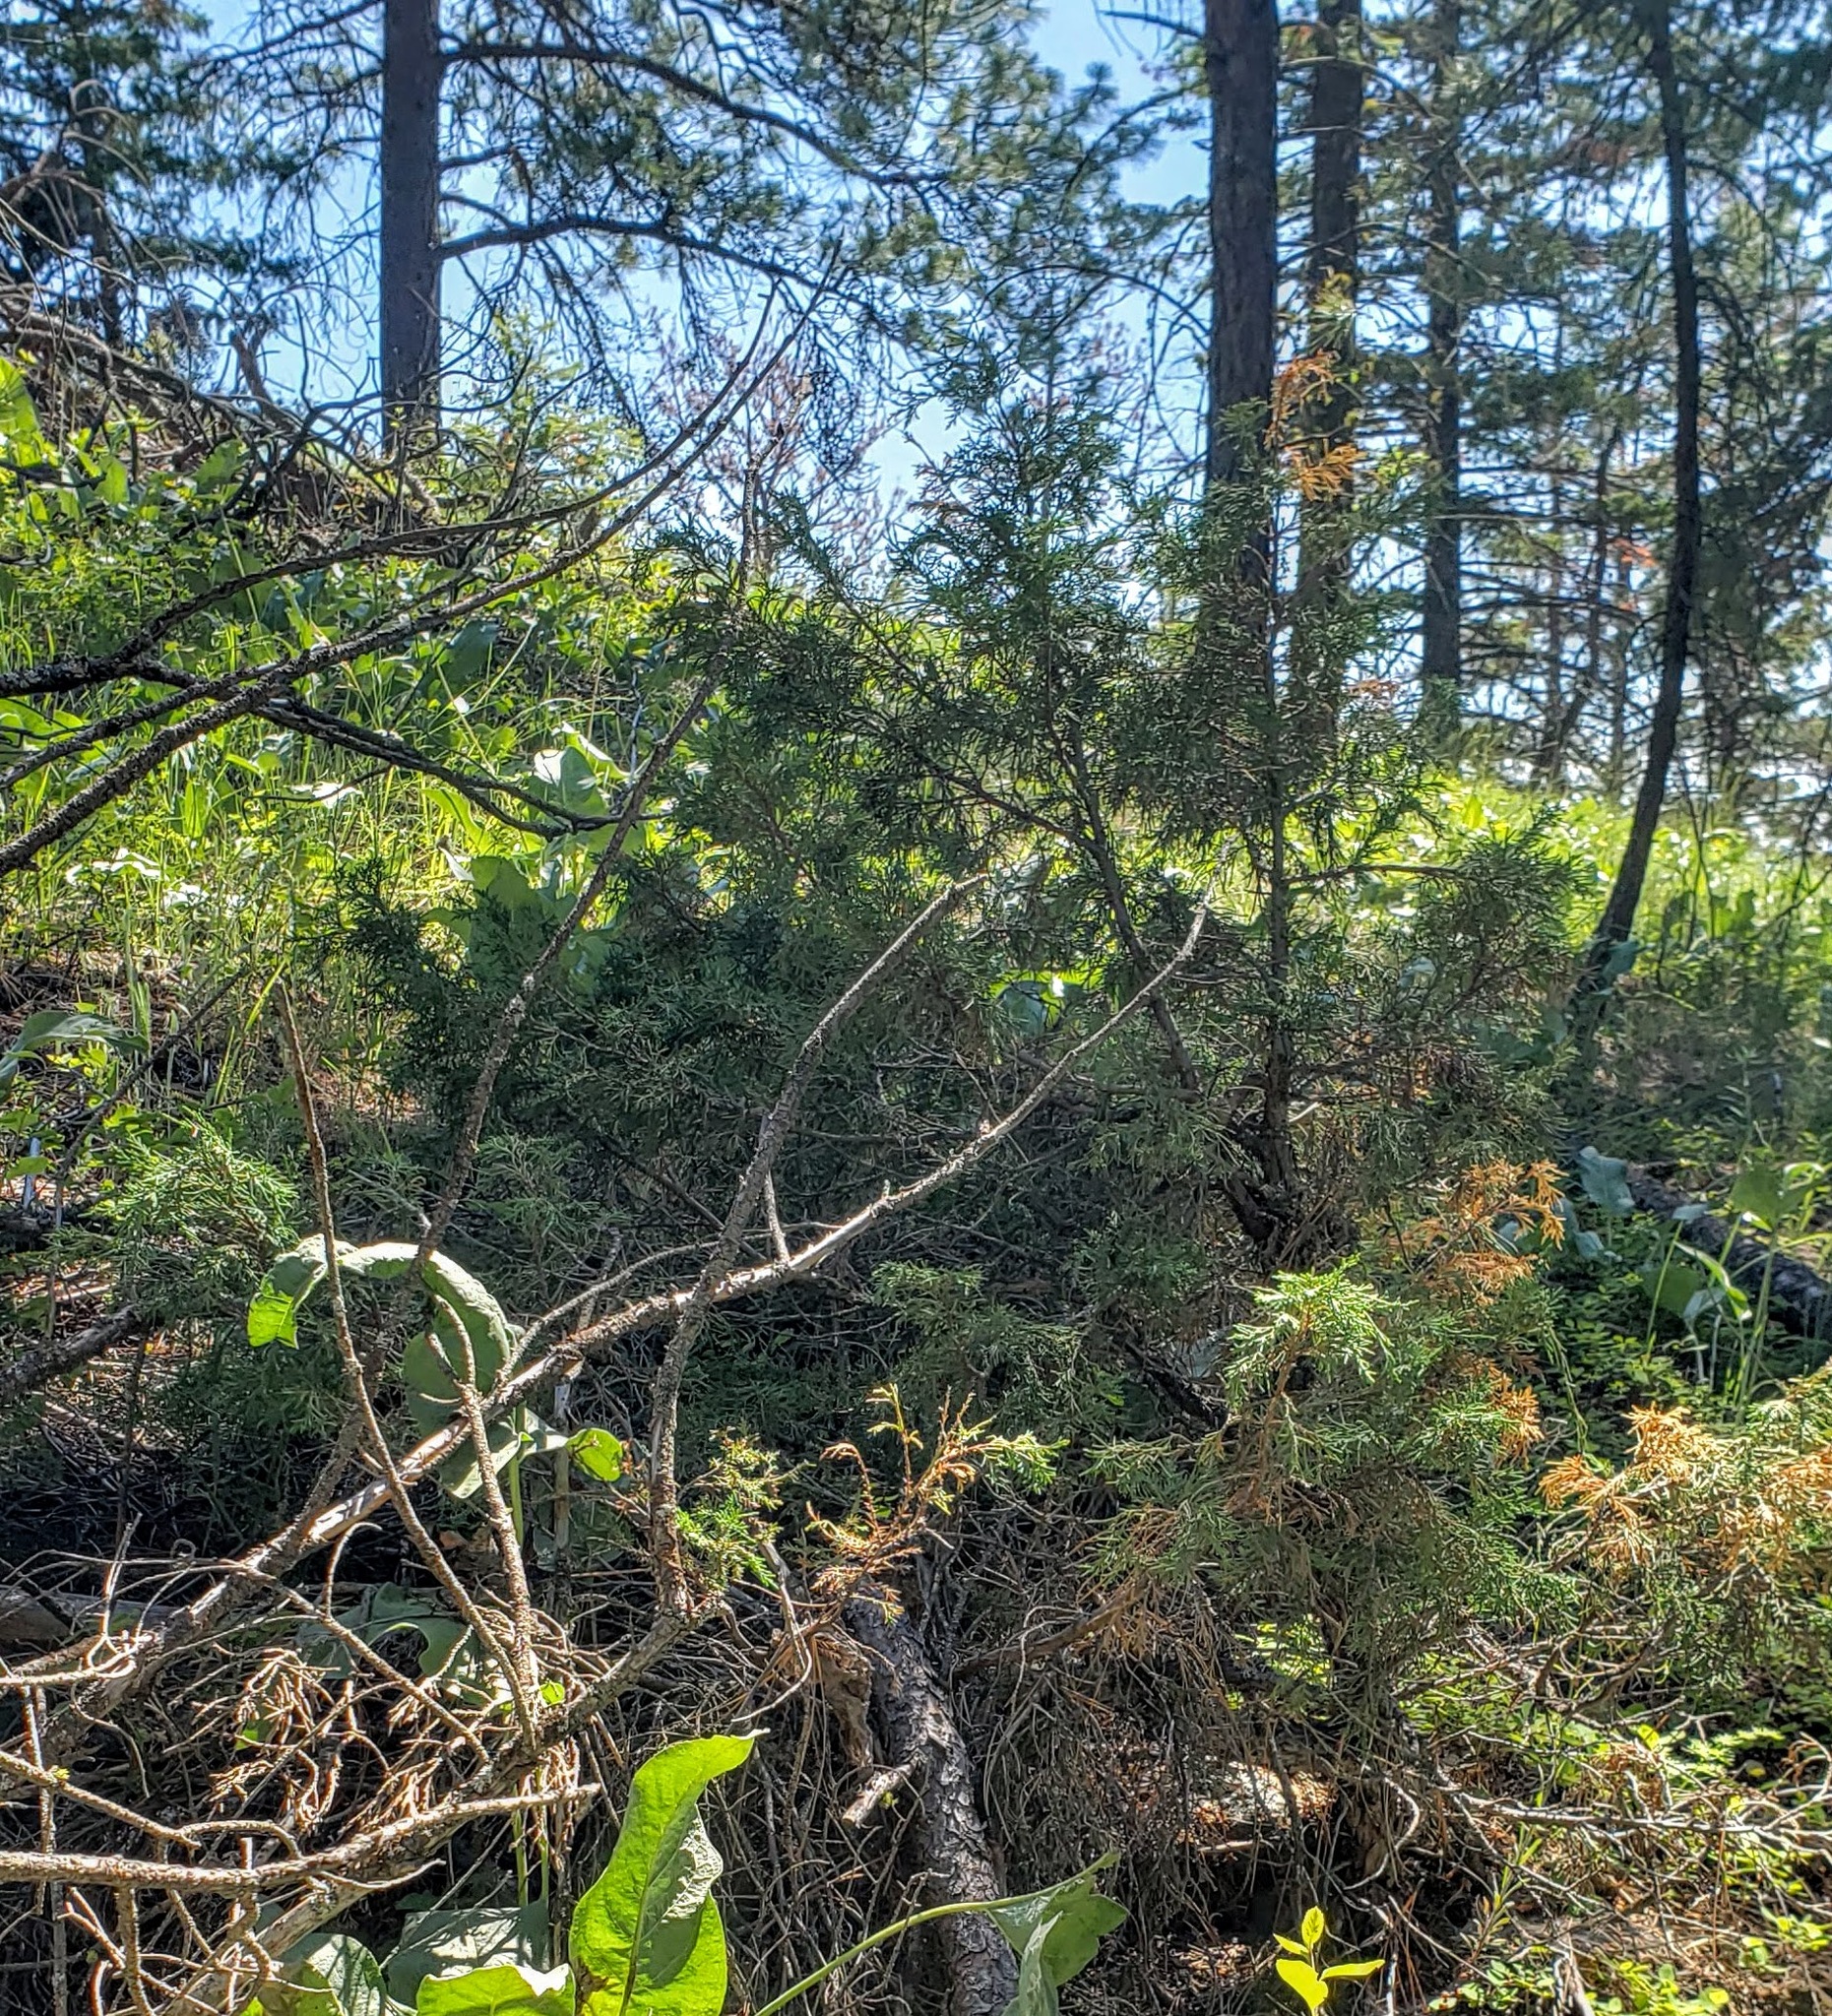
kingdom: Plantae
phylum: Tracheophyta
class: Pinopsida
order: Pinales
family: Cupressaceae
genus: Juniperus
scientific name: Juniperus scopulorum
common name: Rocky mountain juniper
